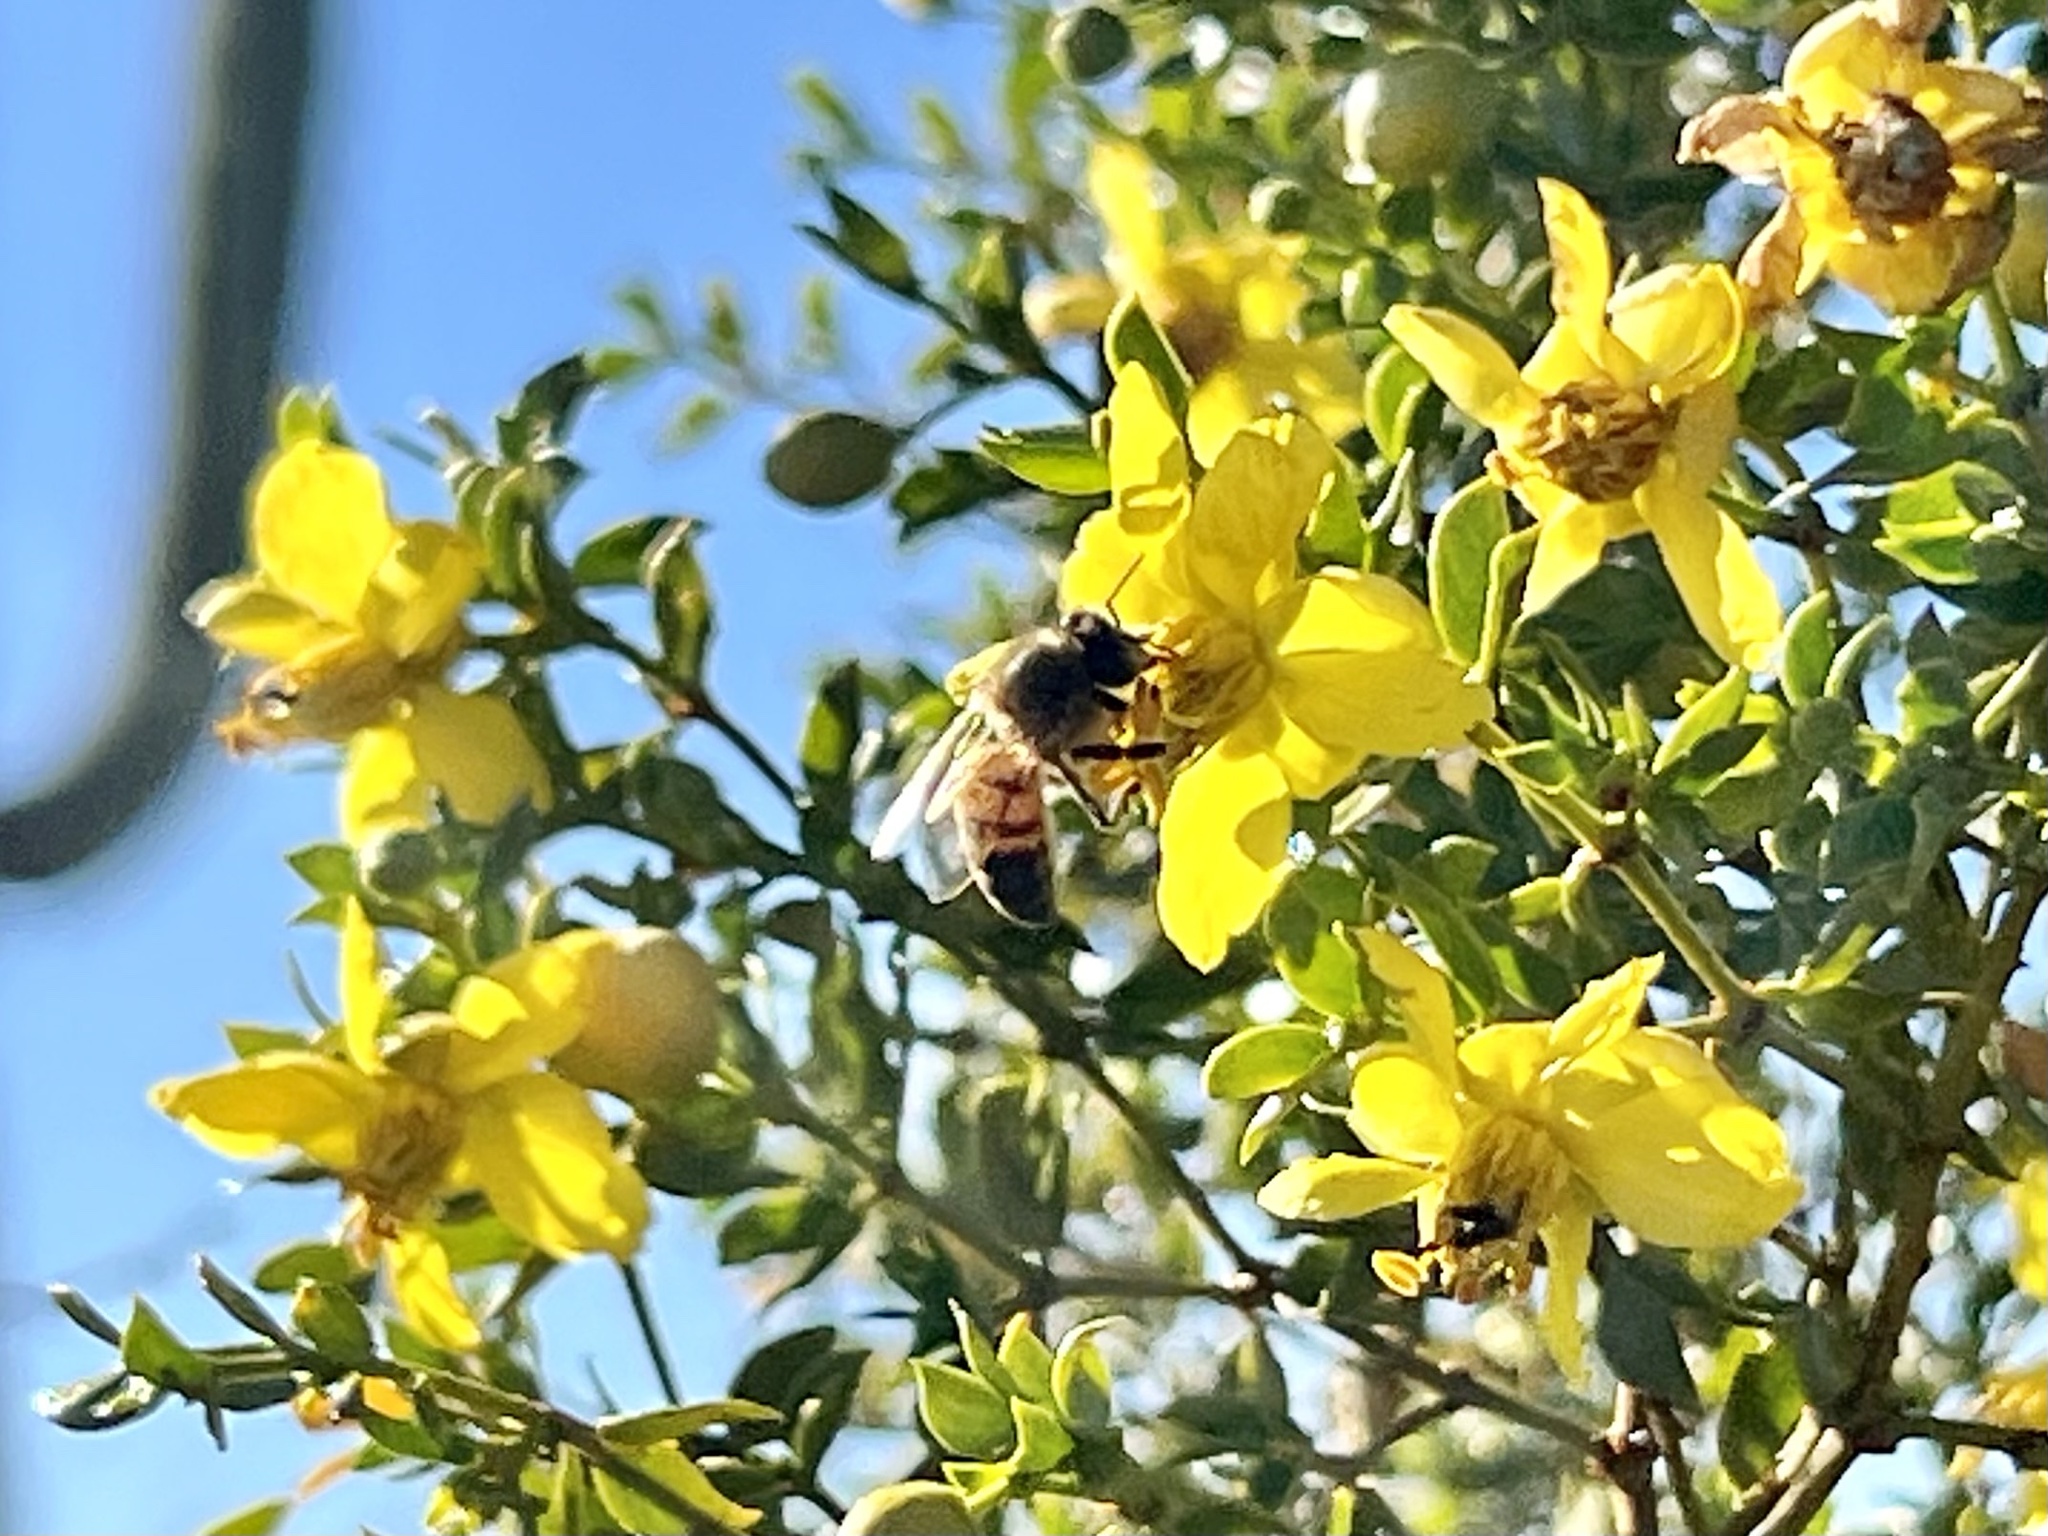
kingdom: Animalia
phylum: Arthropoda
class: Insecta
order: Hymenoptera
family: Apidae
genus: Apis
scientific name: Apis mellifera
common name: Honey bee
